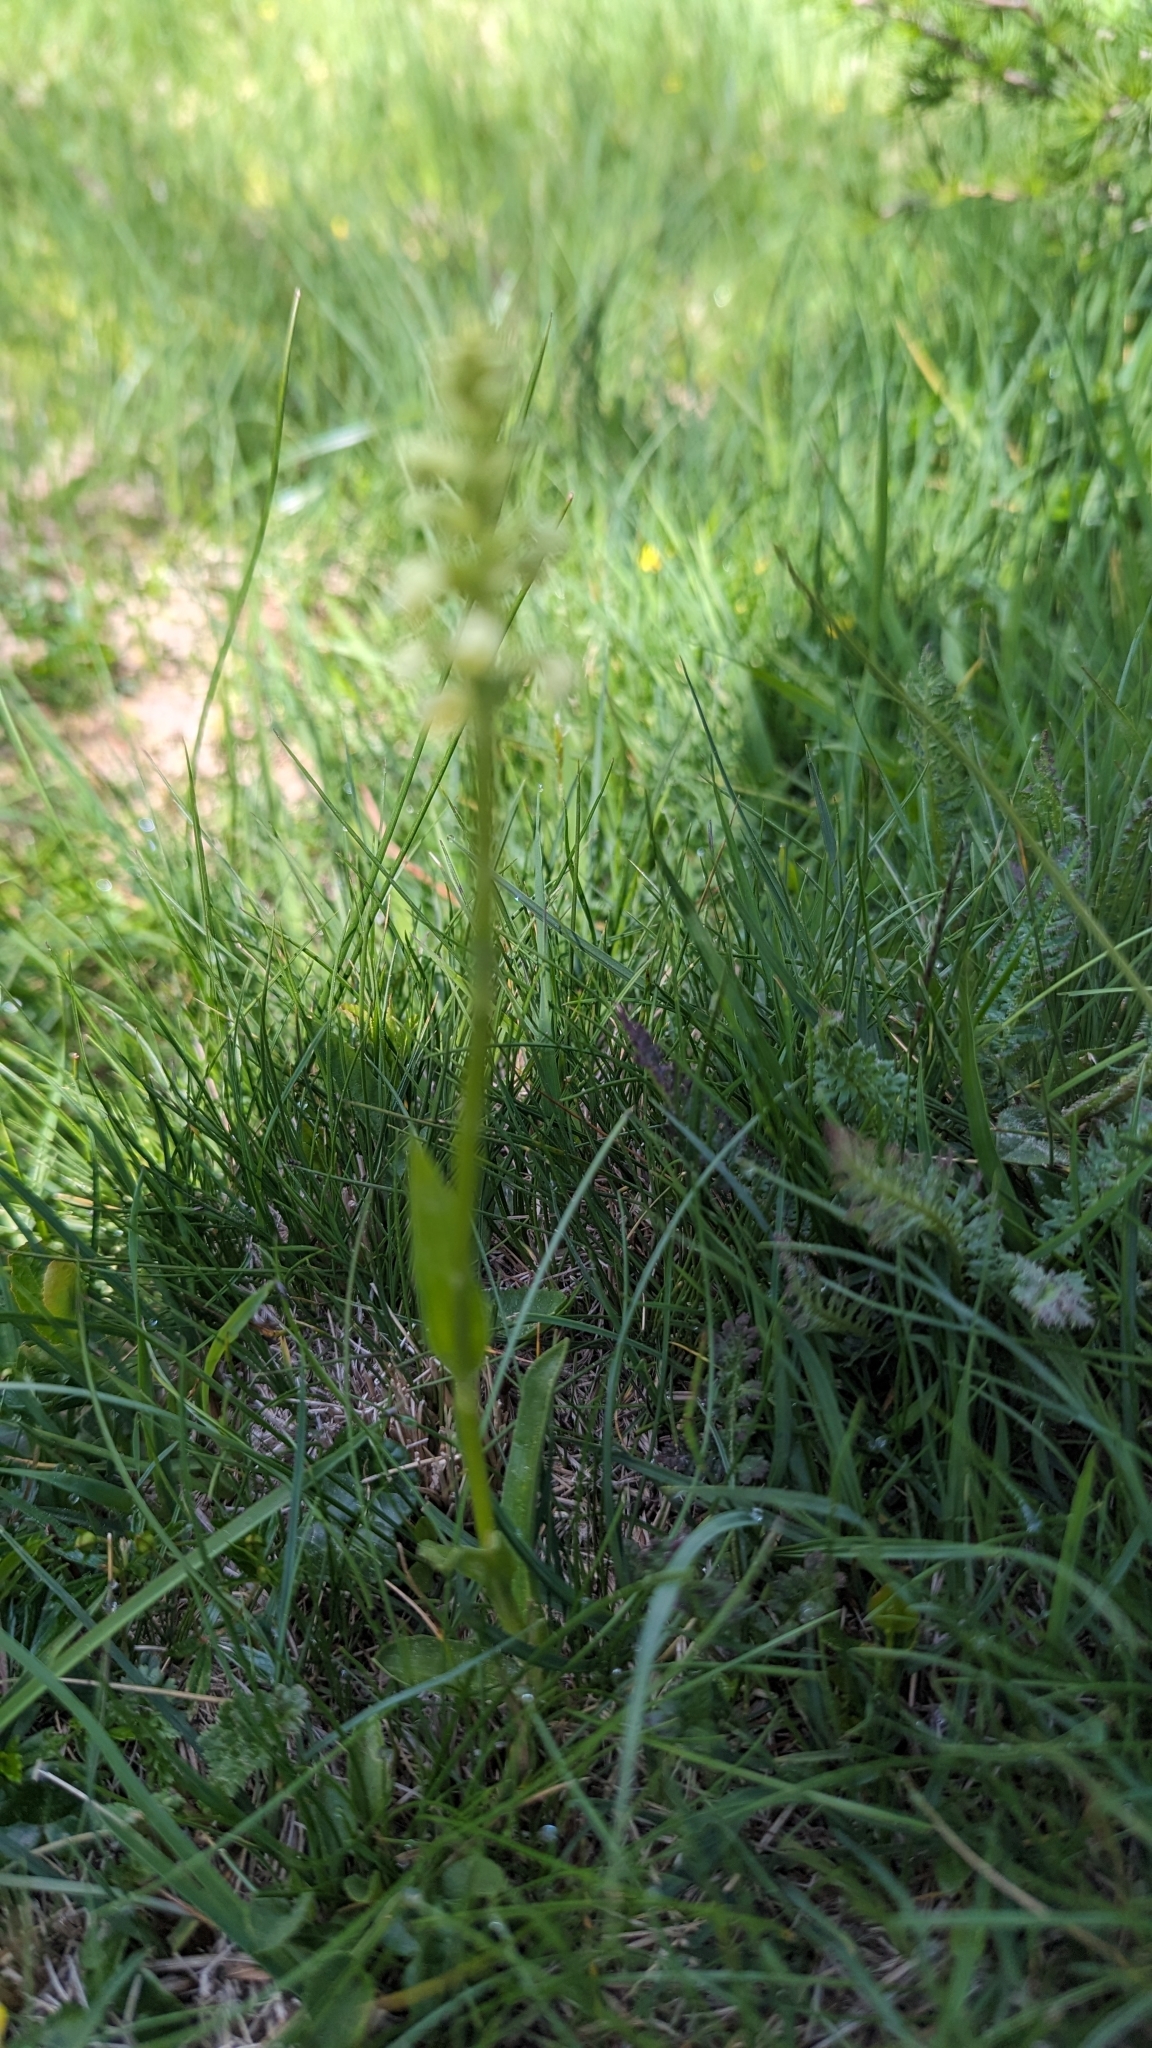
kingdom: Plantae
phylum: Tracheophyta
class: Liliopsida
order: Asparagales
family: Orchidaceae
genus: Pseudorchis
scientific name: Pseudorchis albida
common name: Small-white orchid
